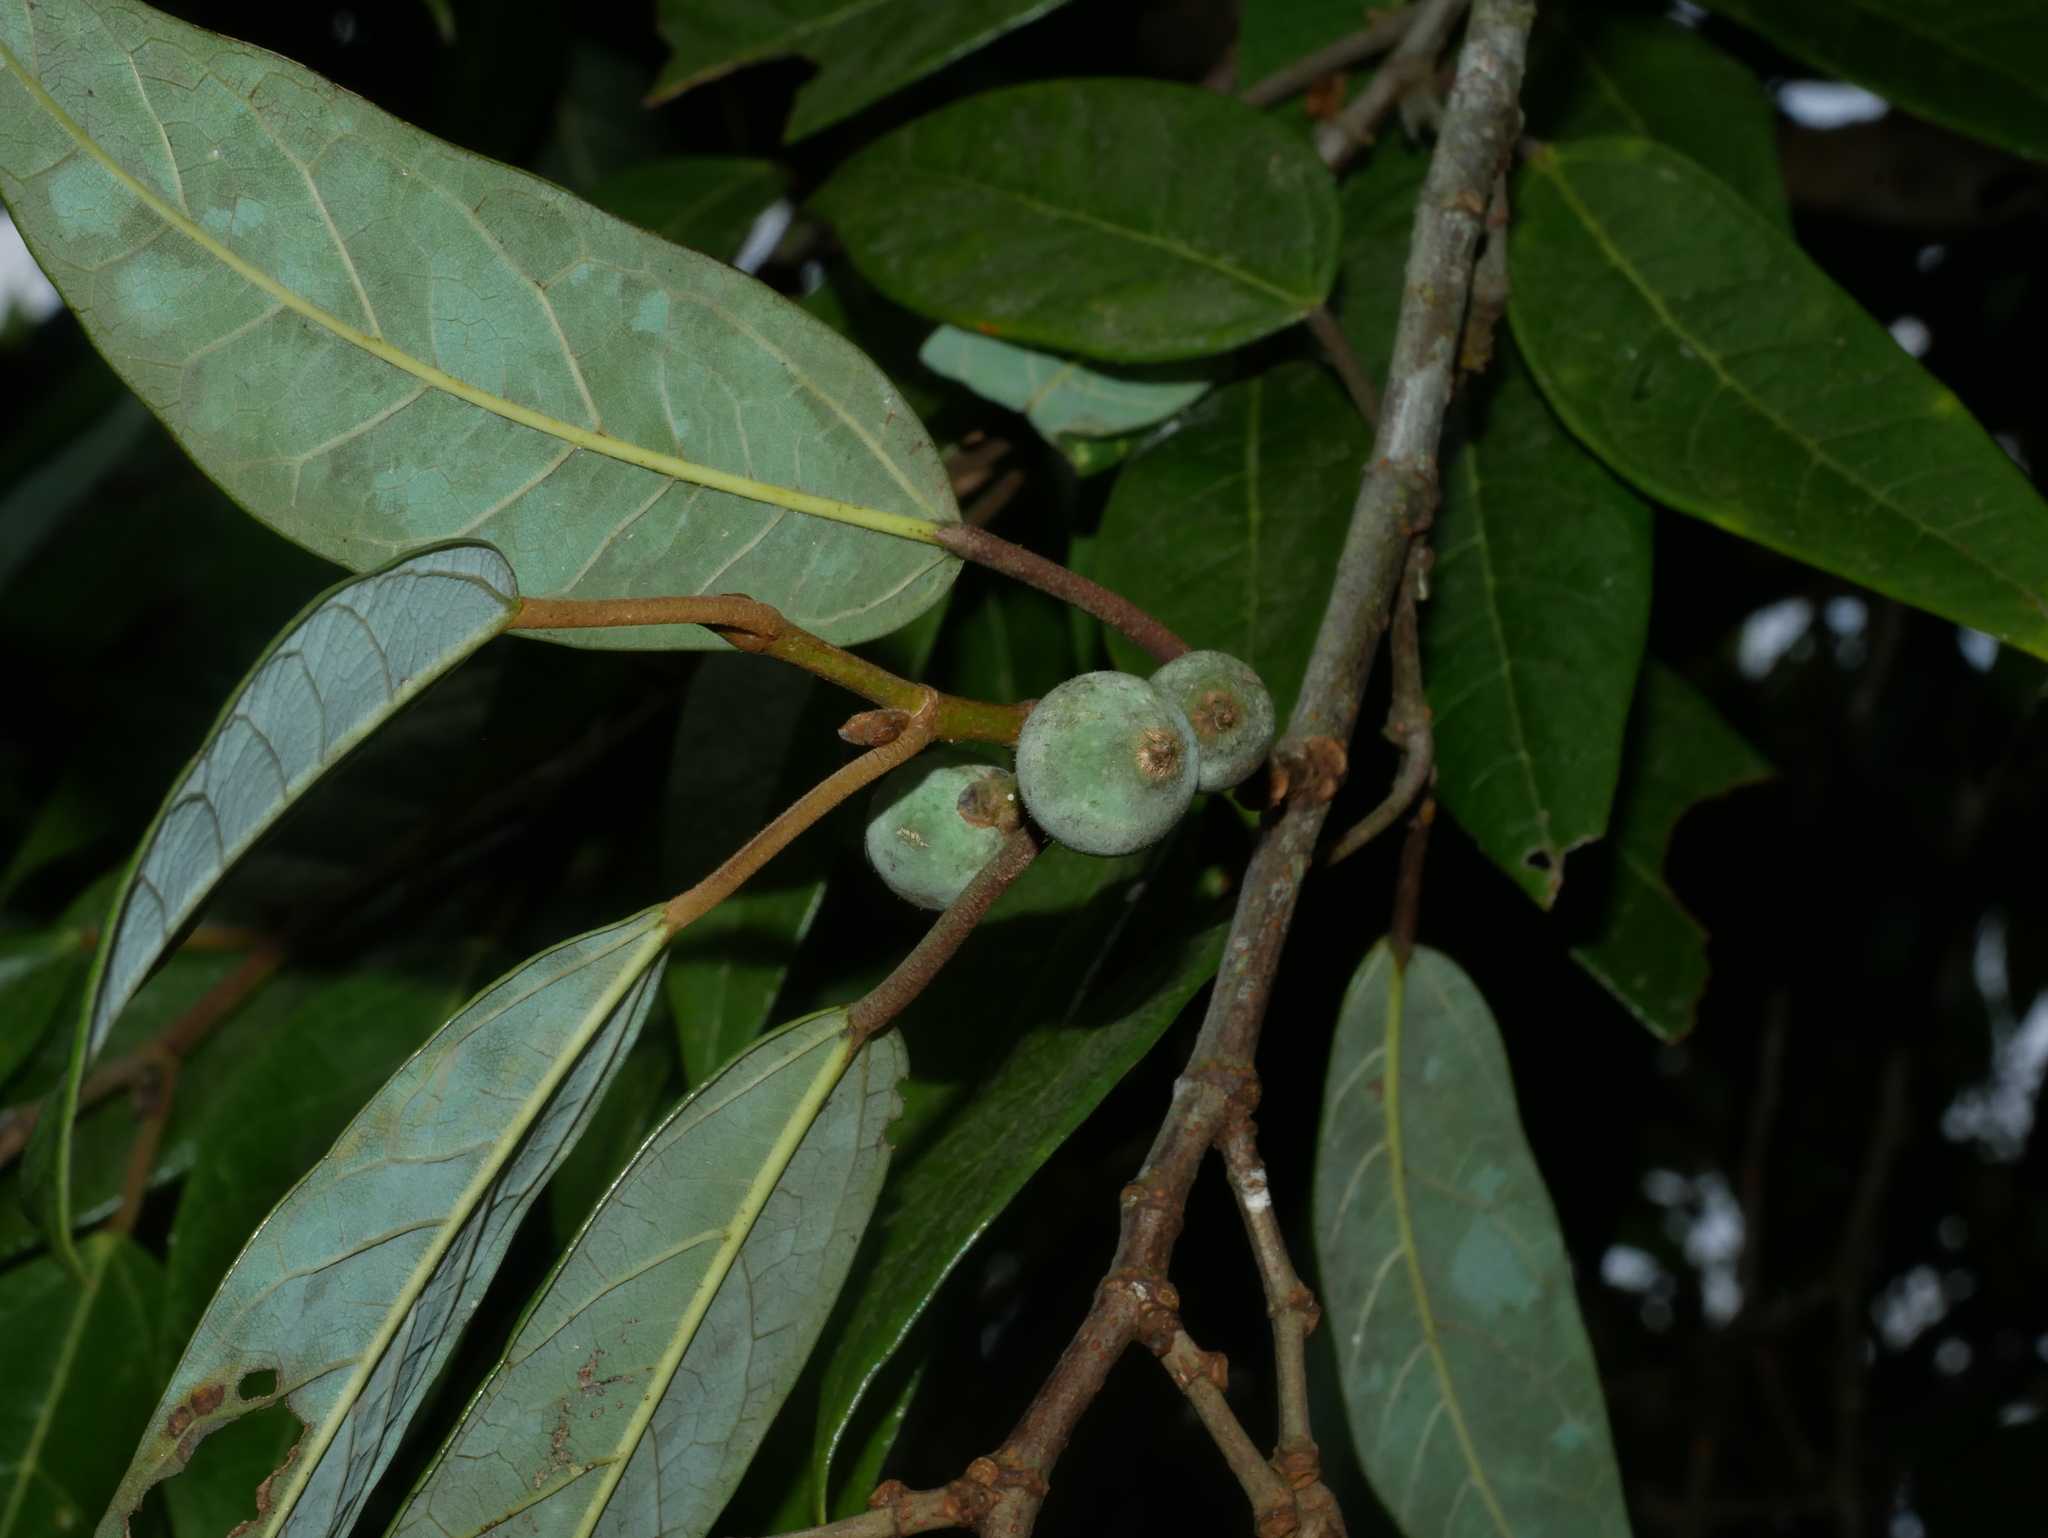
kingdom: Plantae
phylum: Tracheophyta
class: Magnoliopsida
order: Rosales
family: Moraceae
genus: Ficus
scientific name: Ficus sarmentosa
